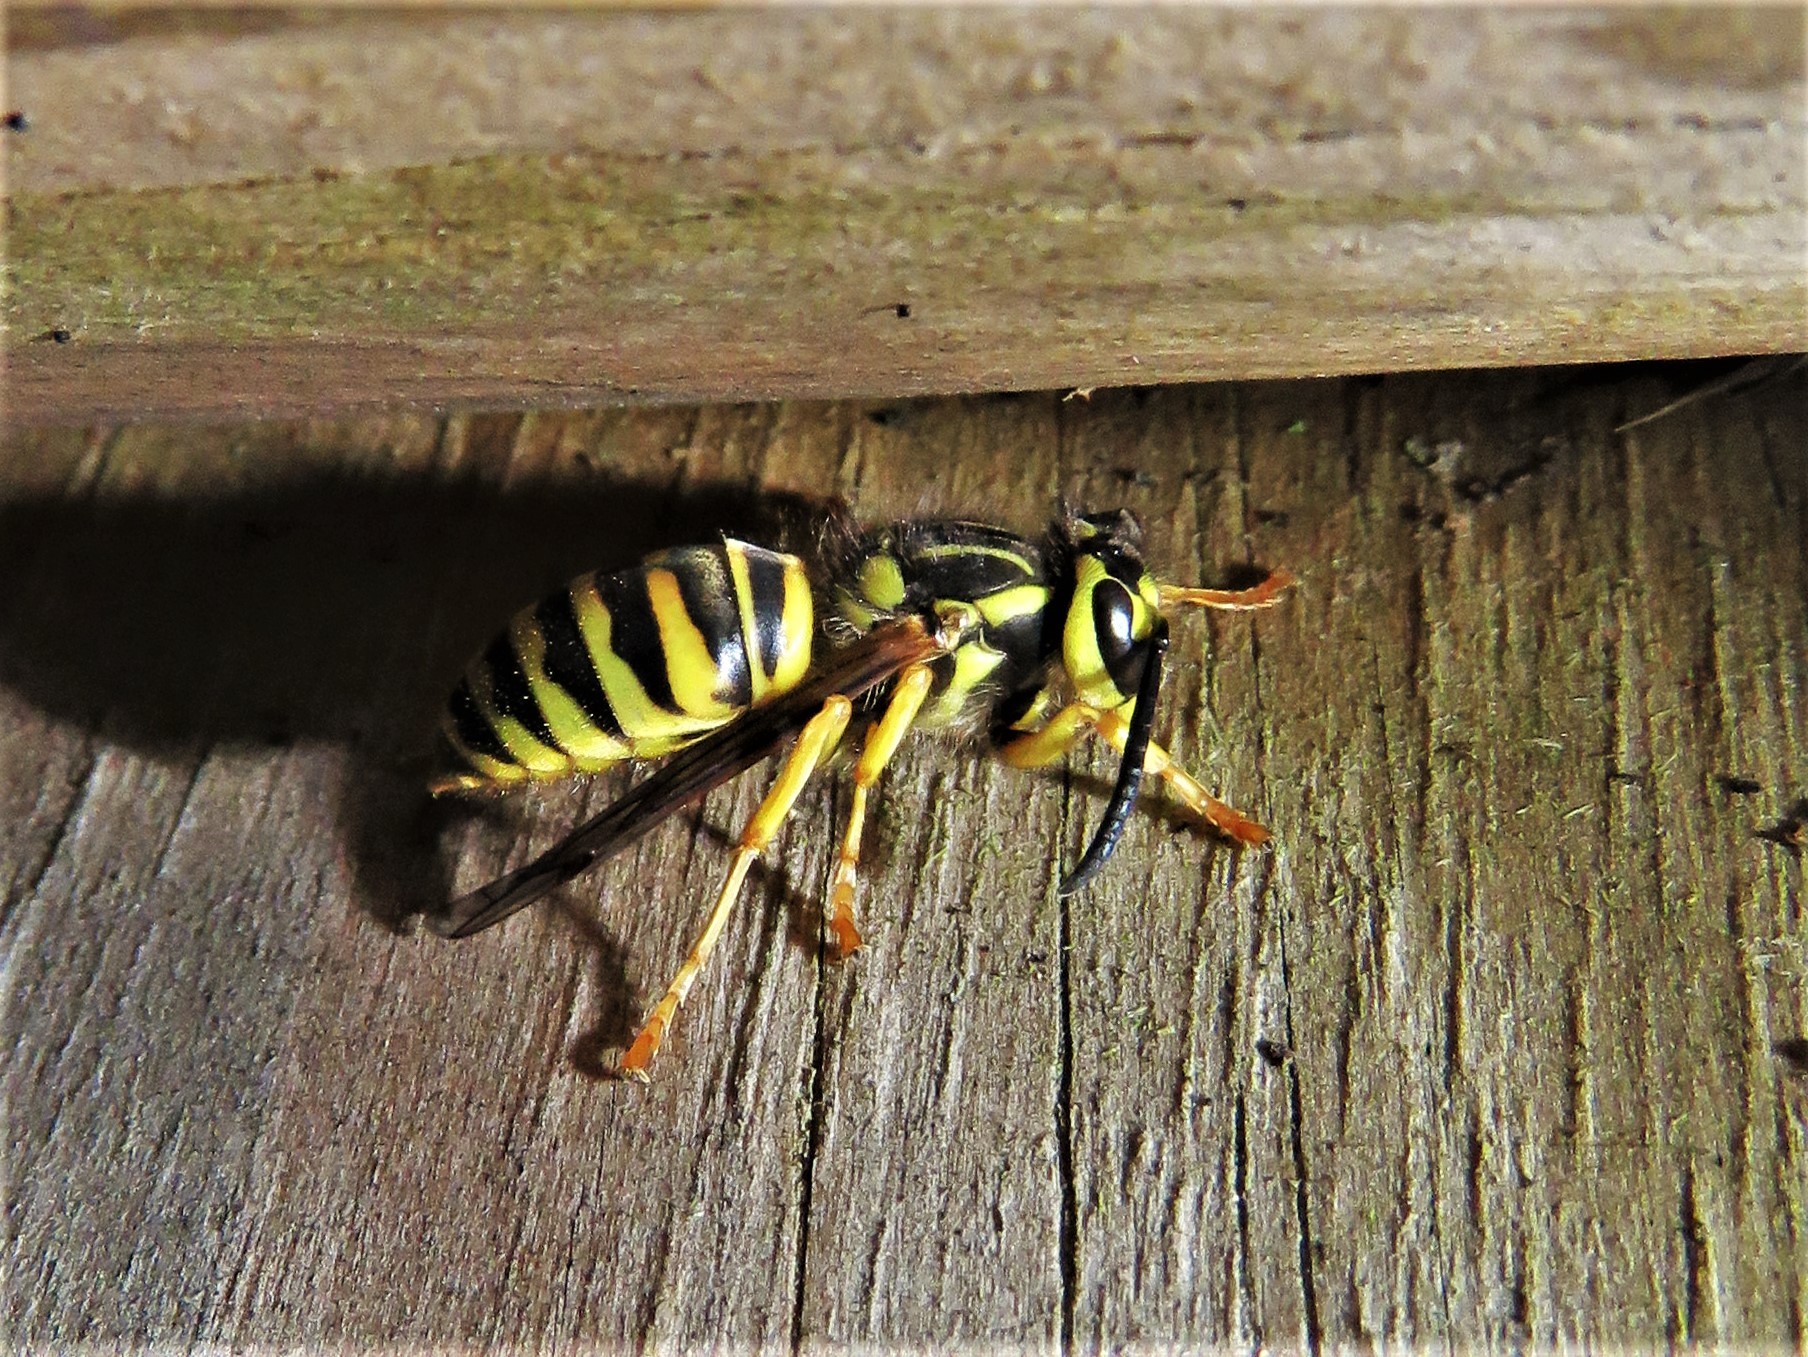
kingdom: Animalia
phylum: Arthropoda
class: Insecta
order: Hymenoptera
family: Vespidae
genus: Vespula
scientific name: Vespula squamosa
